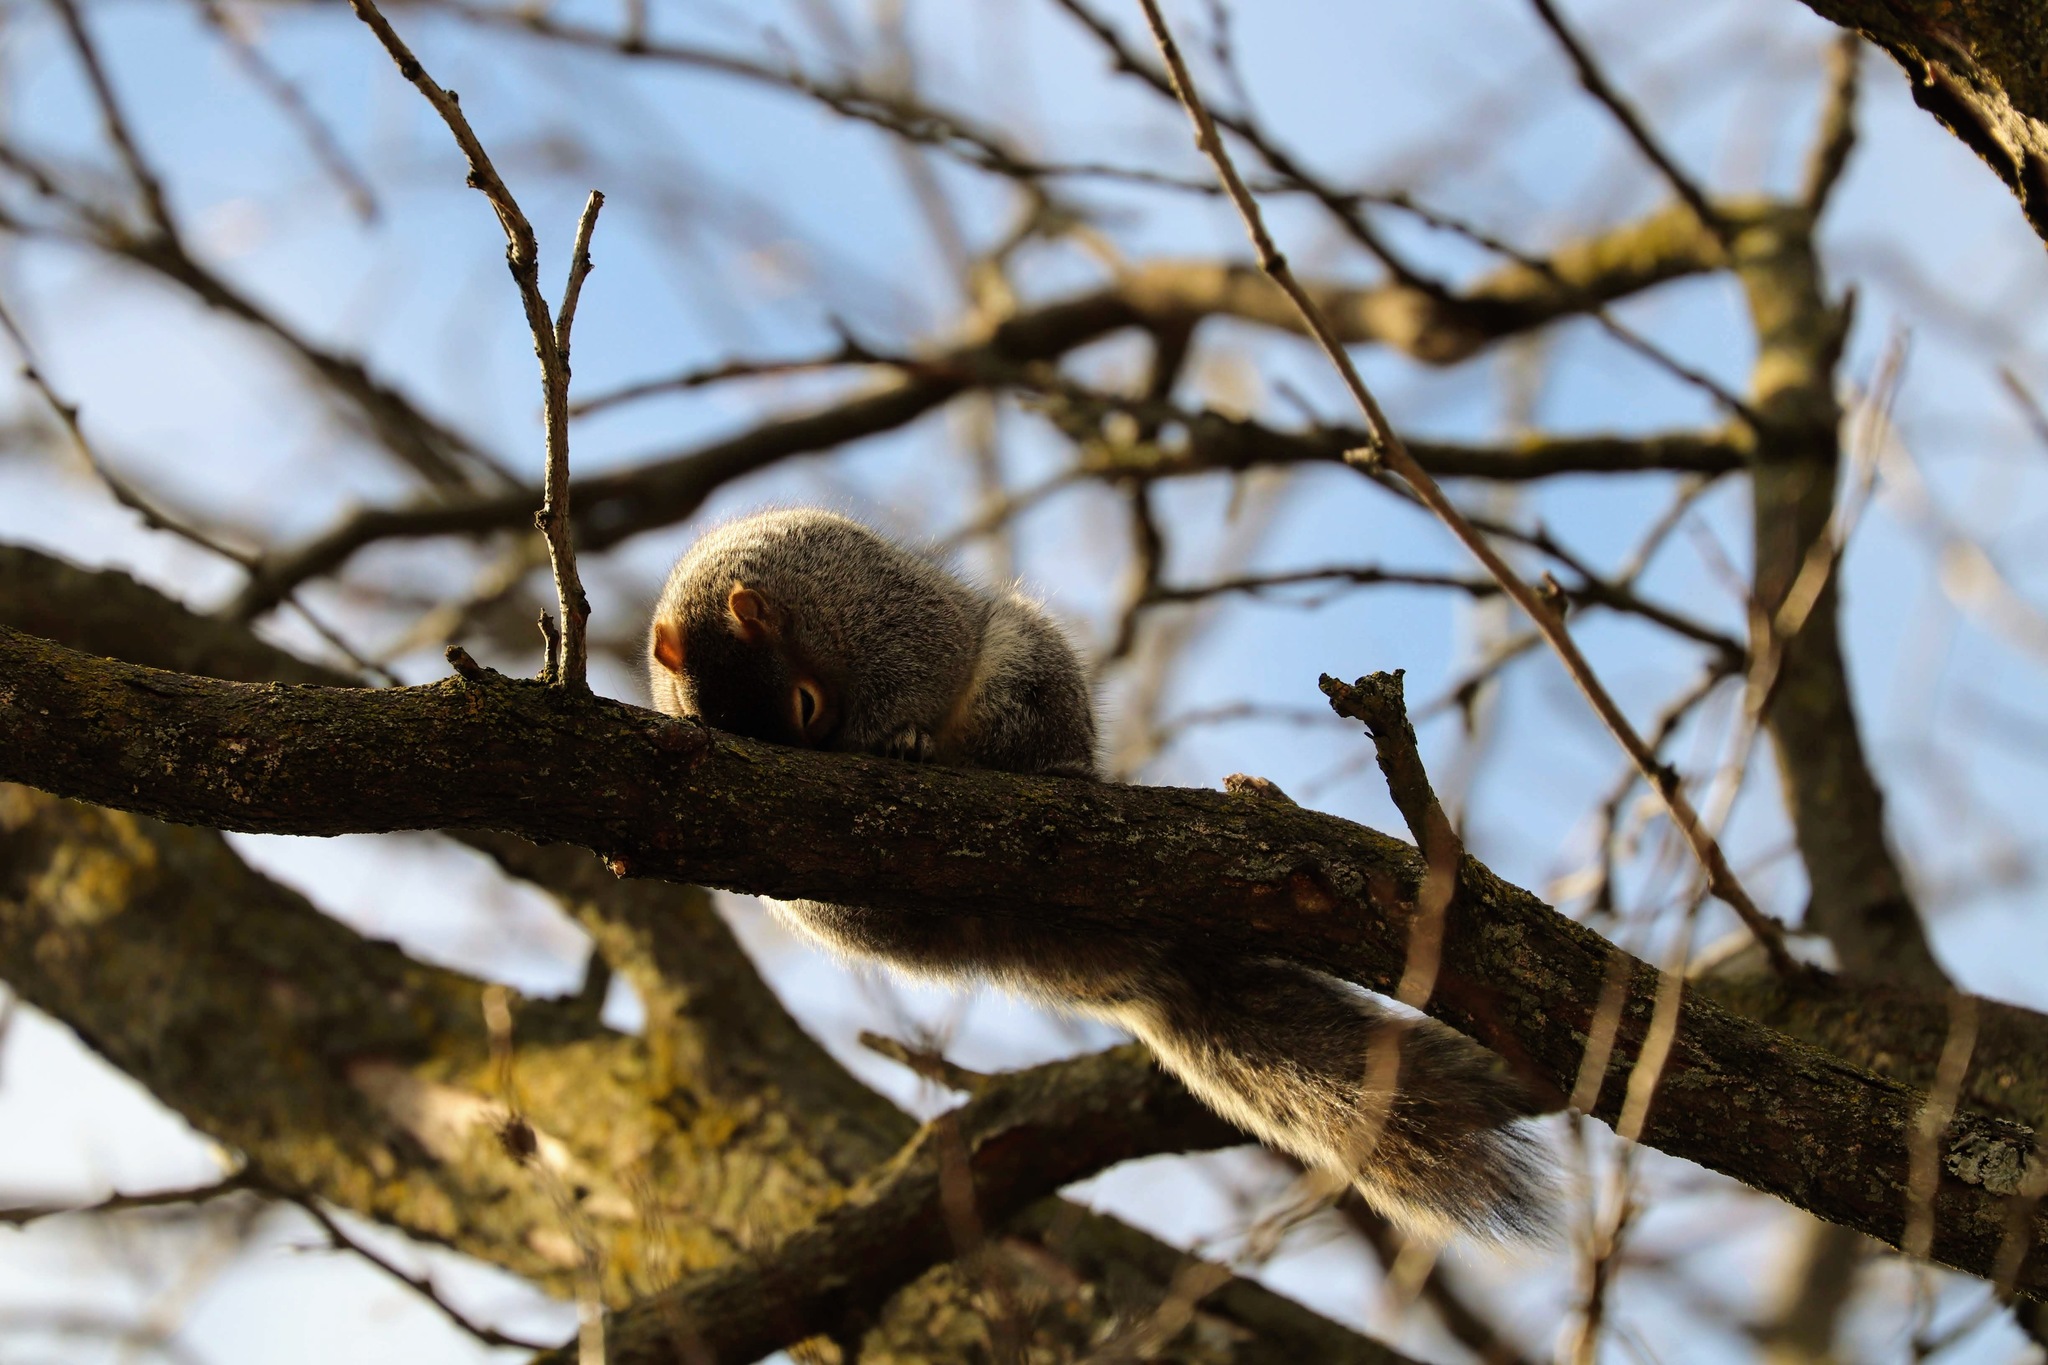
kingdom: Animalia
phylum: Chordata
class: Mammalia
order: Rodentia
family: Sciuridae
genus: Sciurus
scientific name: Sciurus carolinensis
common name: Eastern gray squirrel
